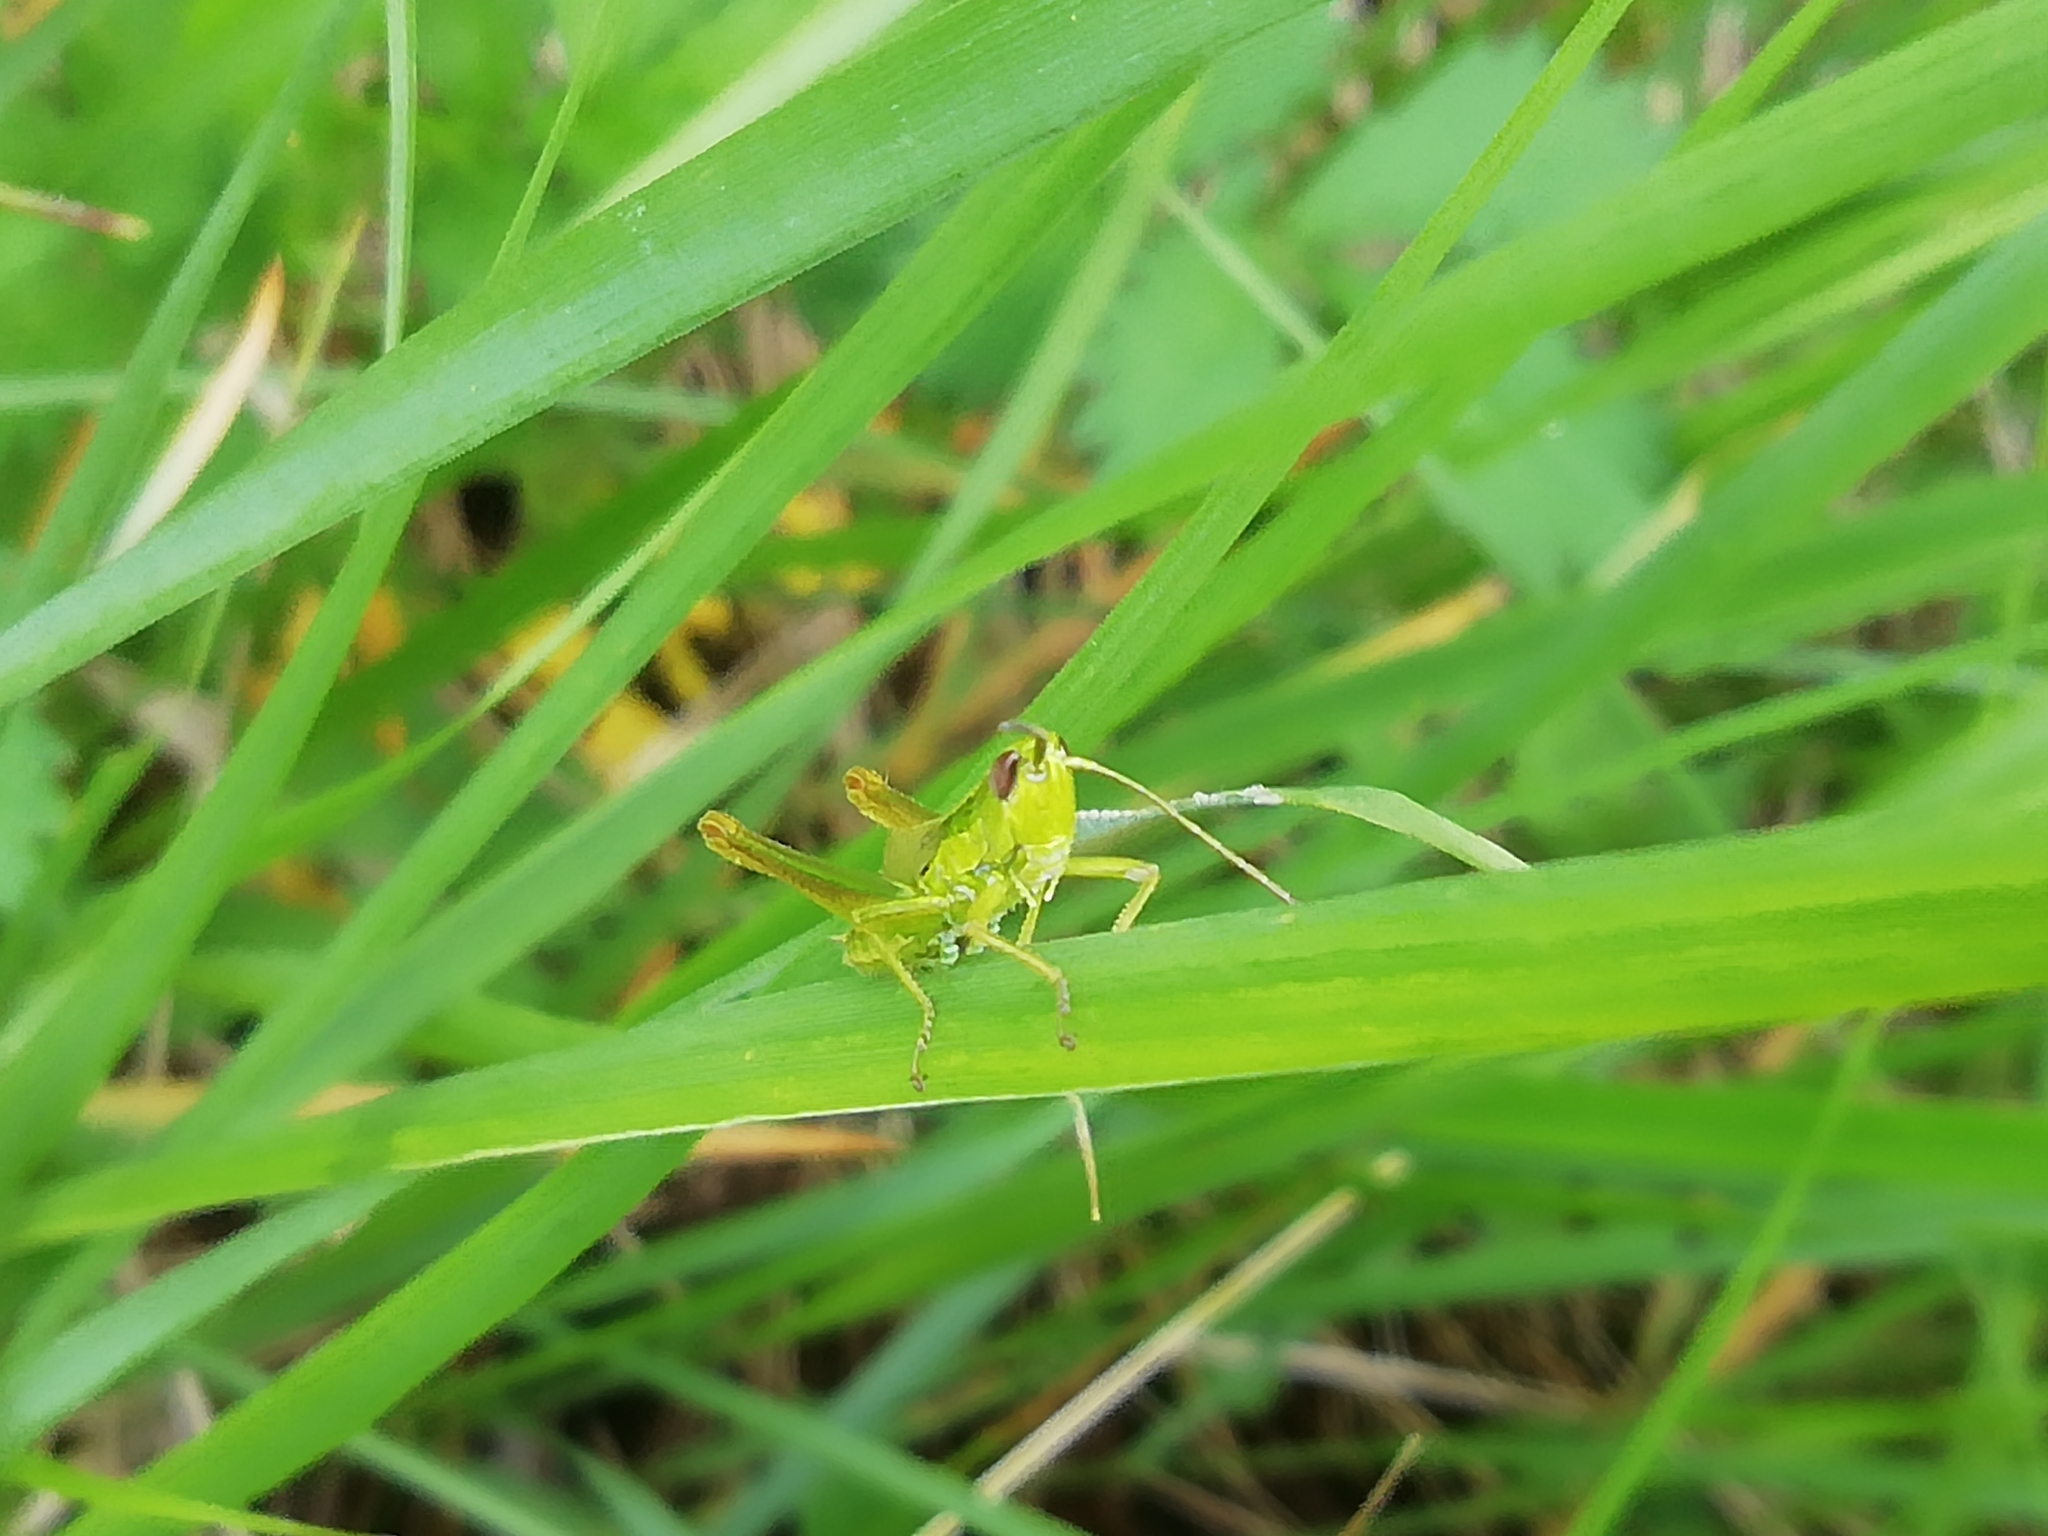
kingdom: Animalia
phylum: Arthropoda
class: Insecta
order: Orthoptera
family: Acrididae
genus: Euthystira
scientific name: Euthystira brachyptera
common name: Small gold grasshopper
